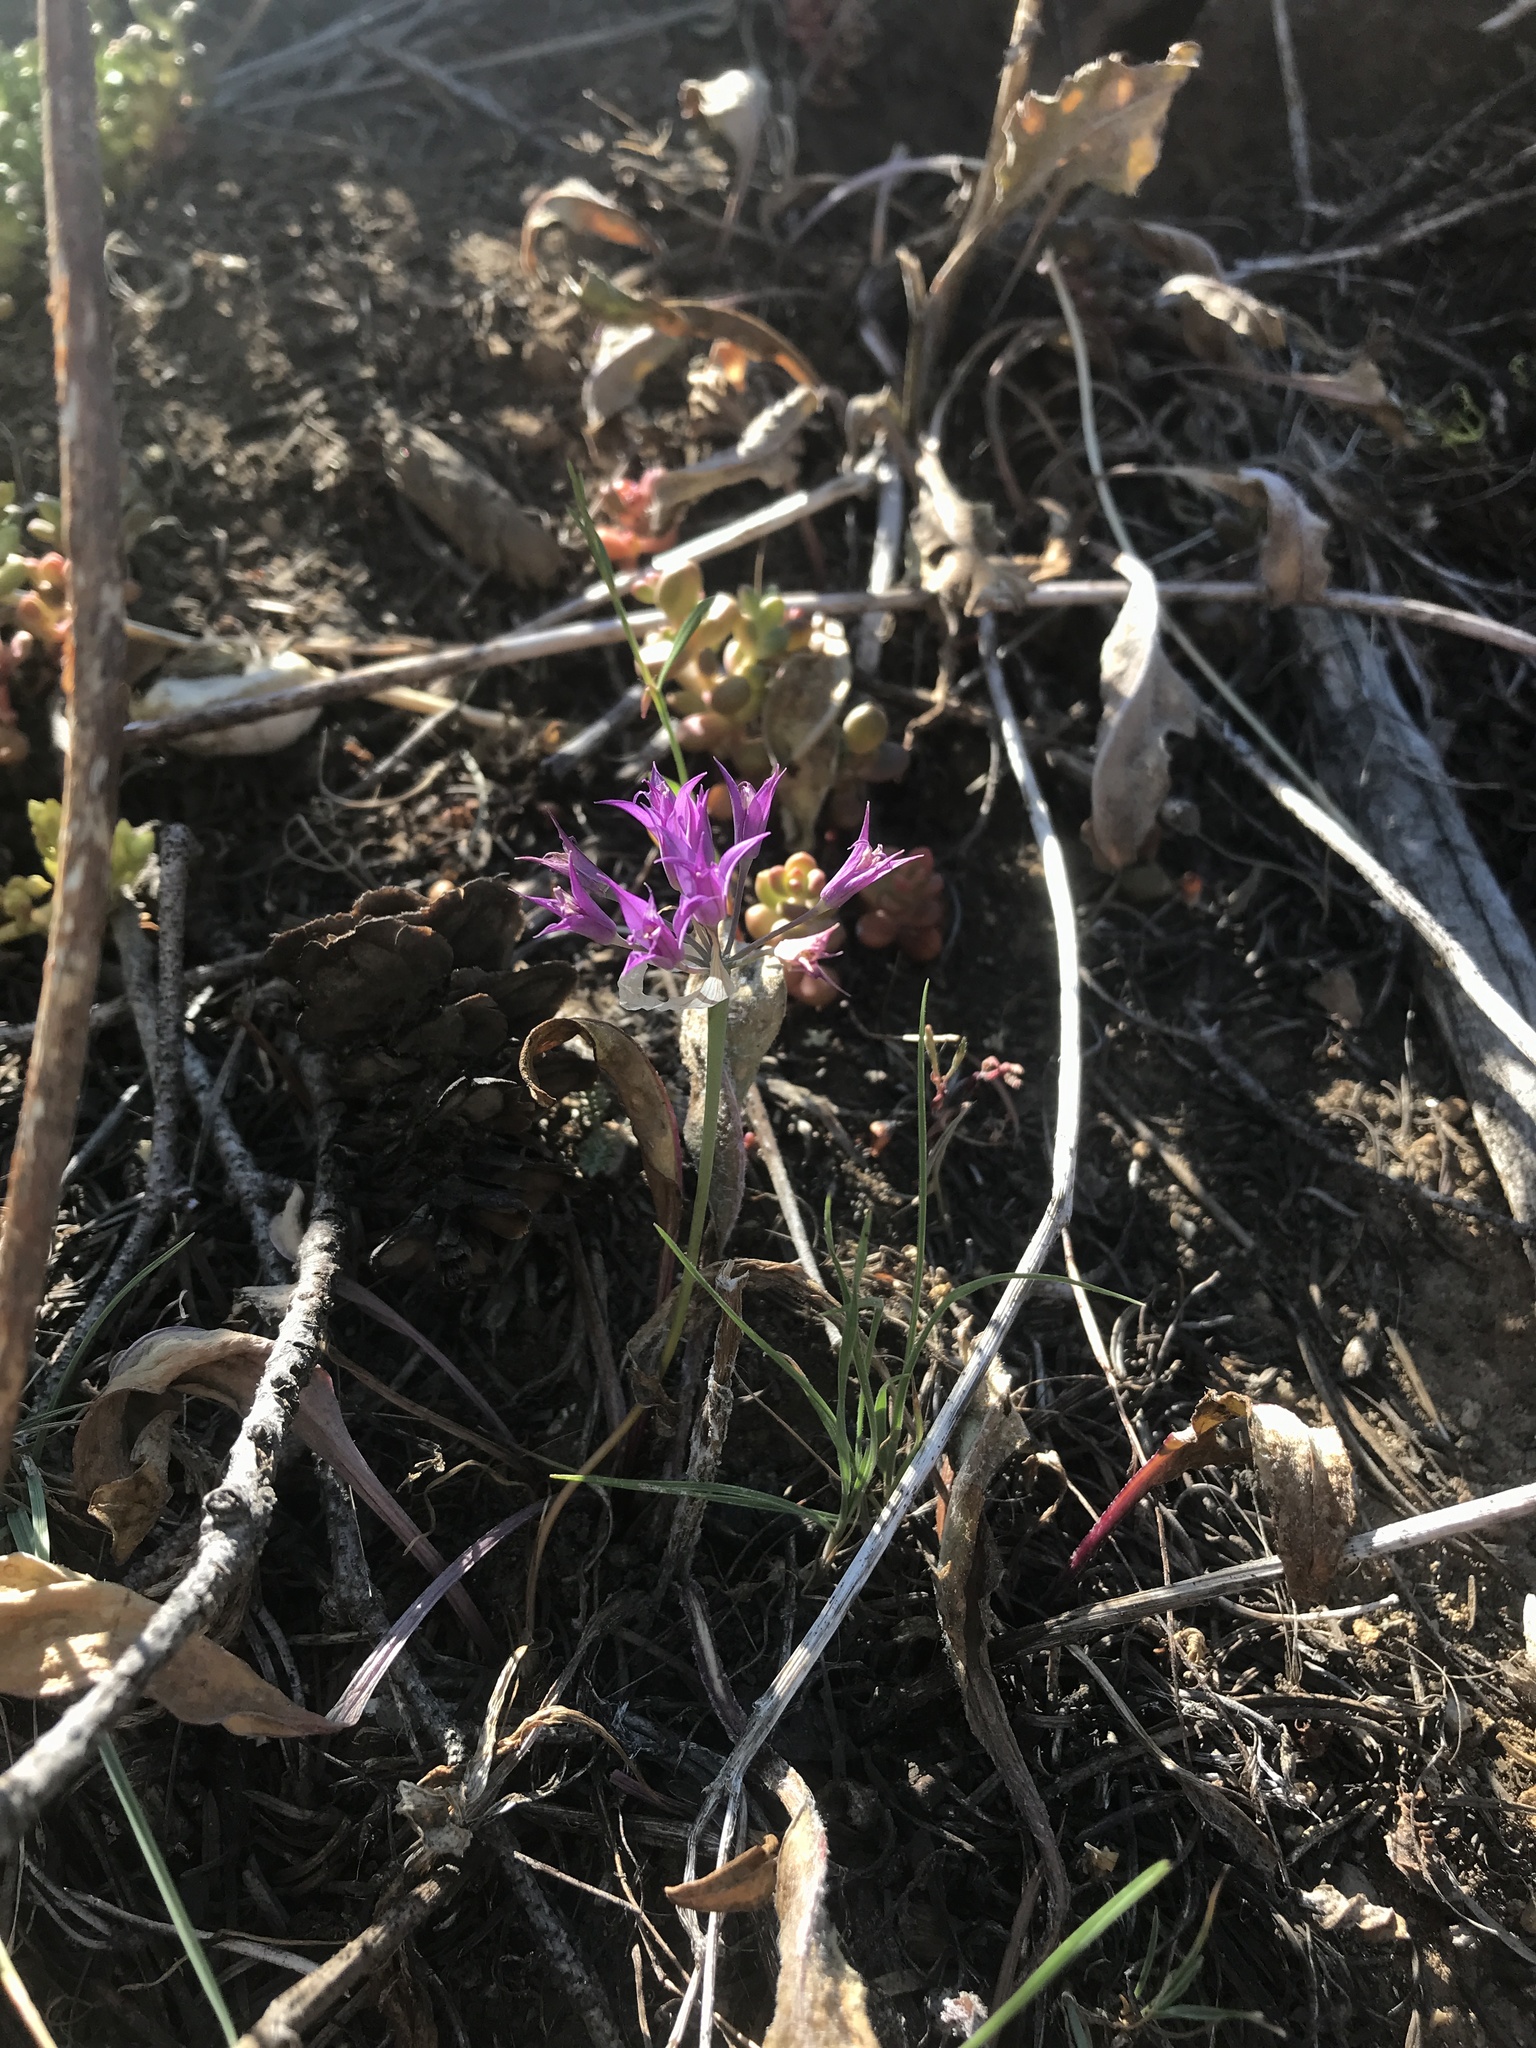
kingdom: Plantae
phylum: Tracheophyta
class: Liliopsida
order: Asparagales
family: Amaryllidaceae
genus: Allium
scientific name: Allium acuminatum
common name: Hooker's onion
